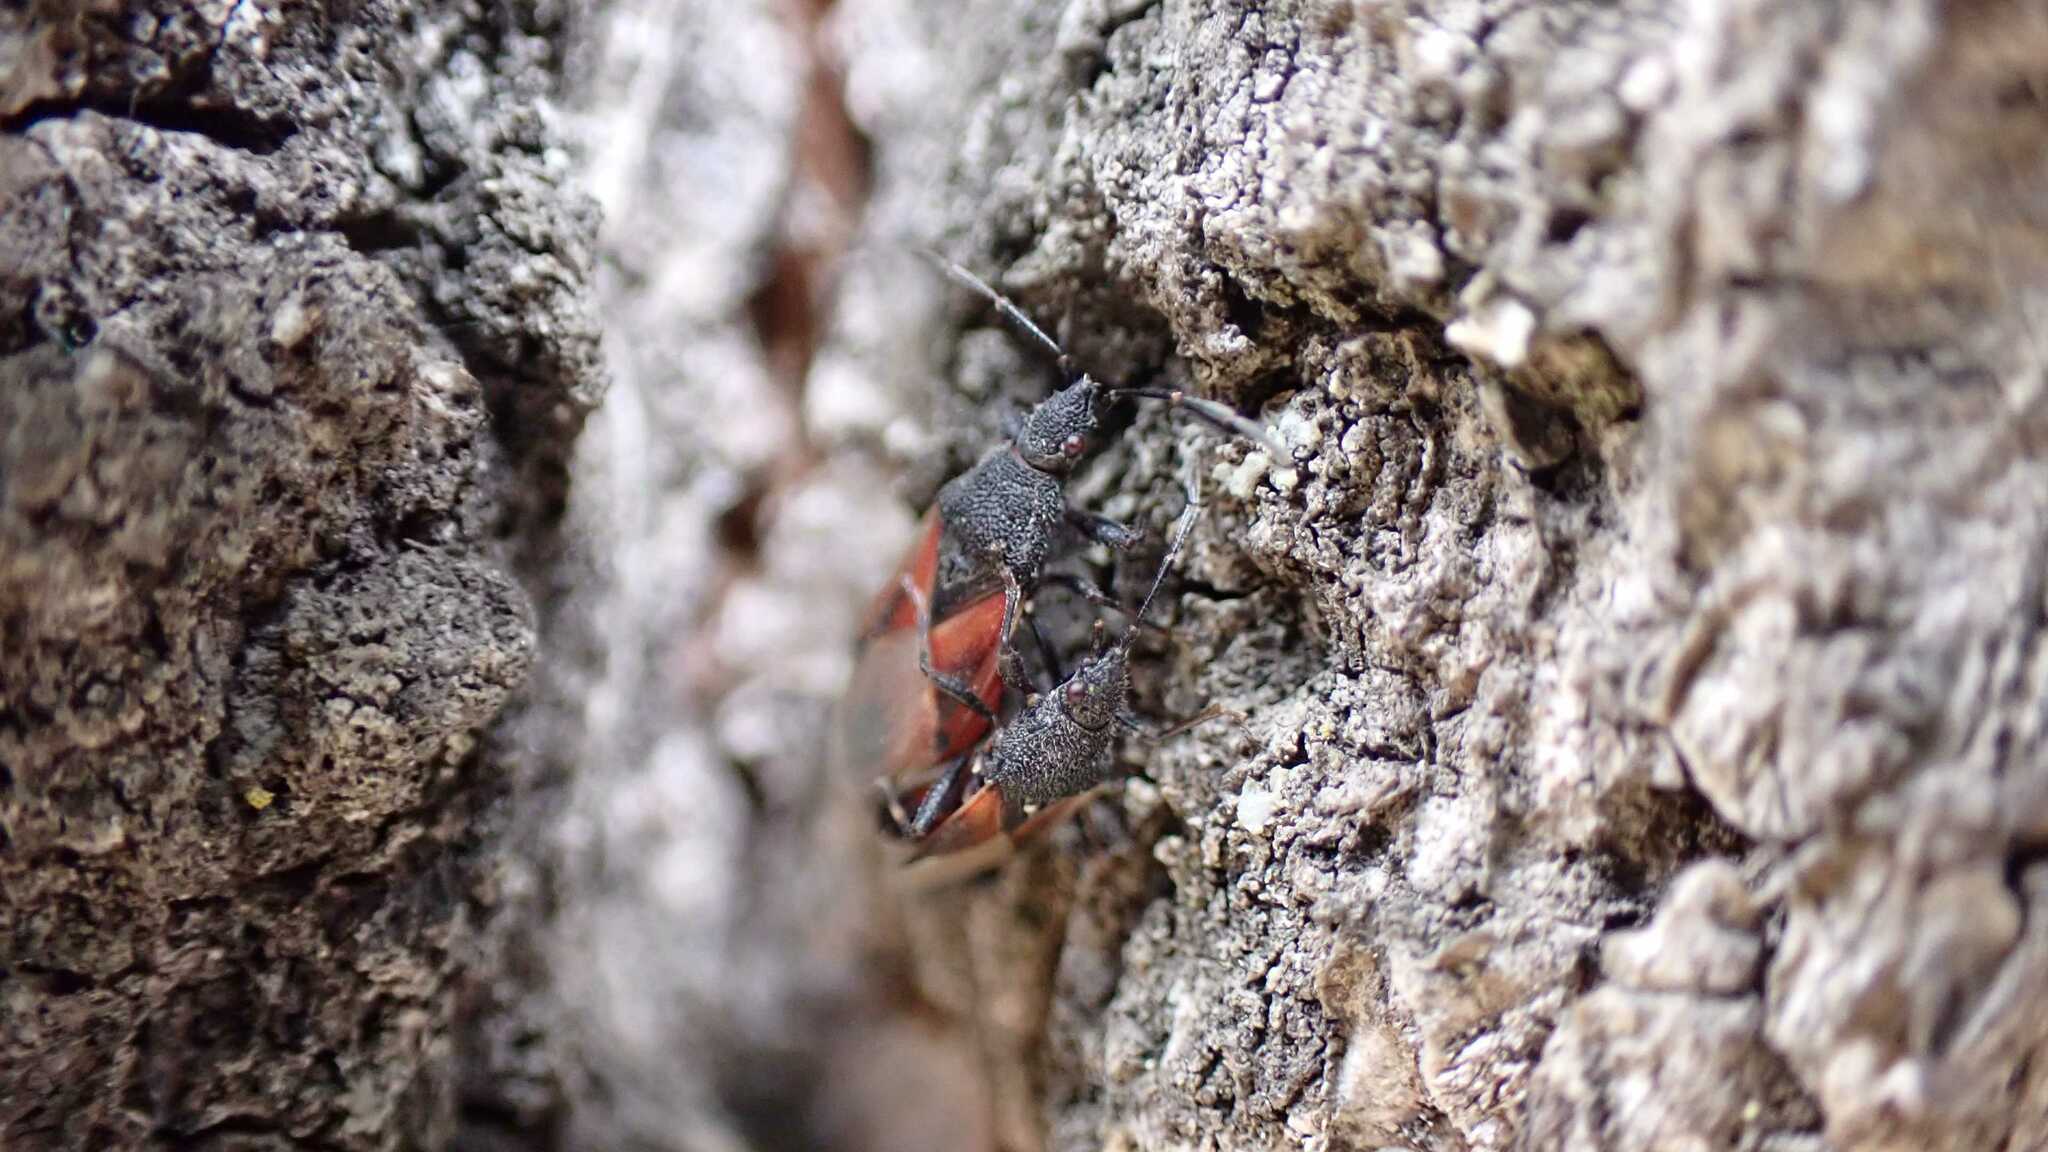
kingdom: Animalia
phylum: Arthropoda
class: Insecta
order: Hemiptera
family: Oxycarenidae
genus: Oxycarenus
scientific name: Oxycarenus lavaterae
